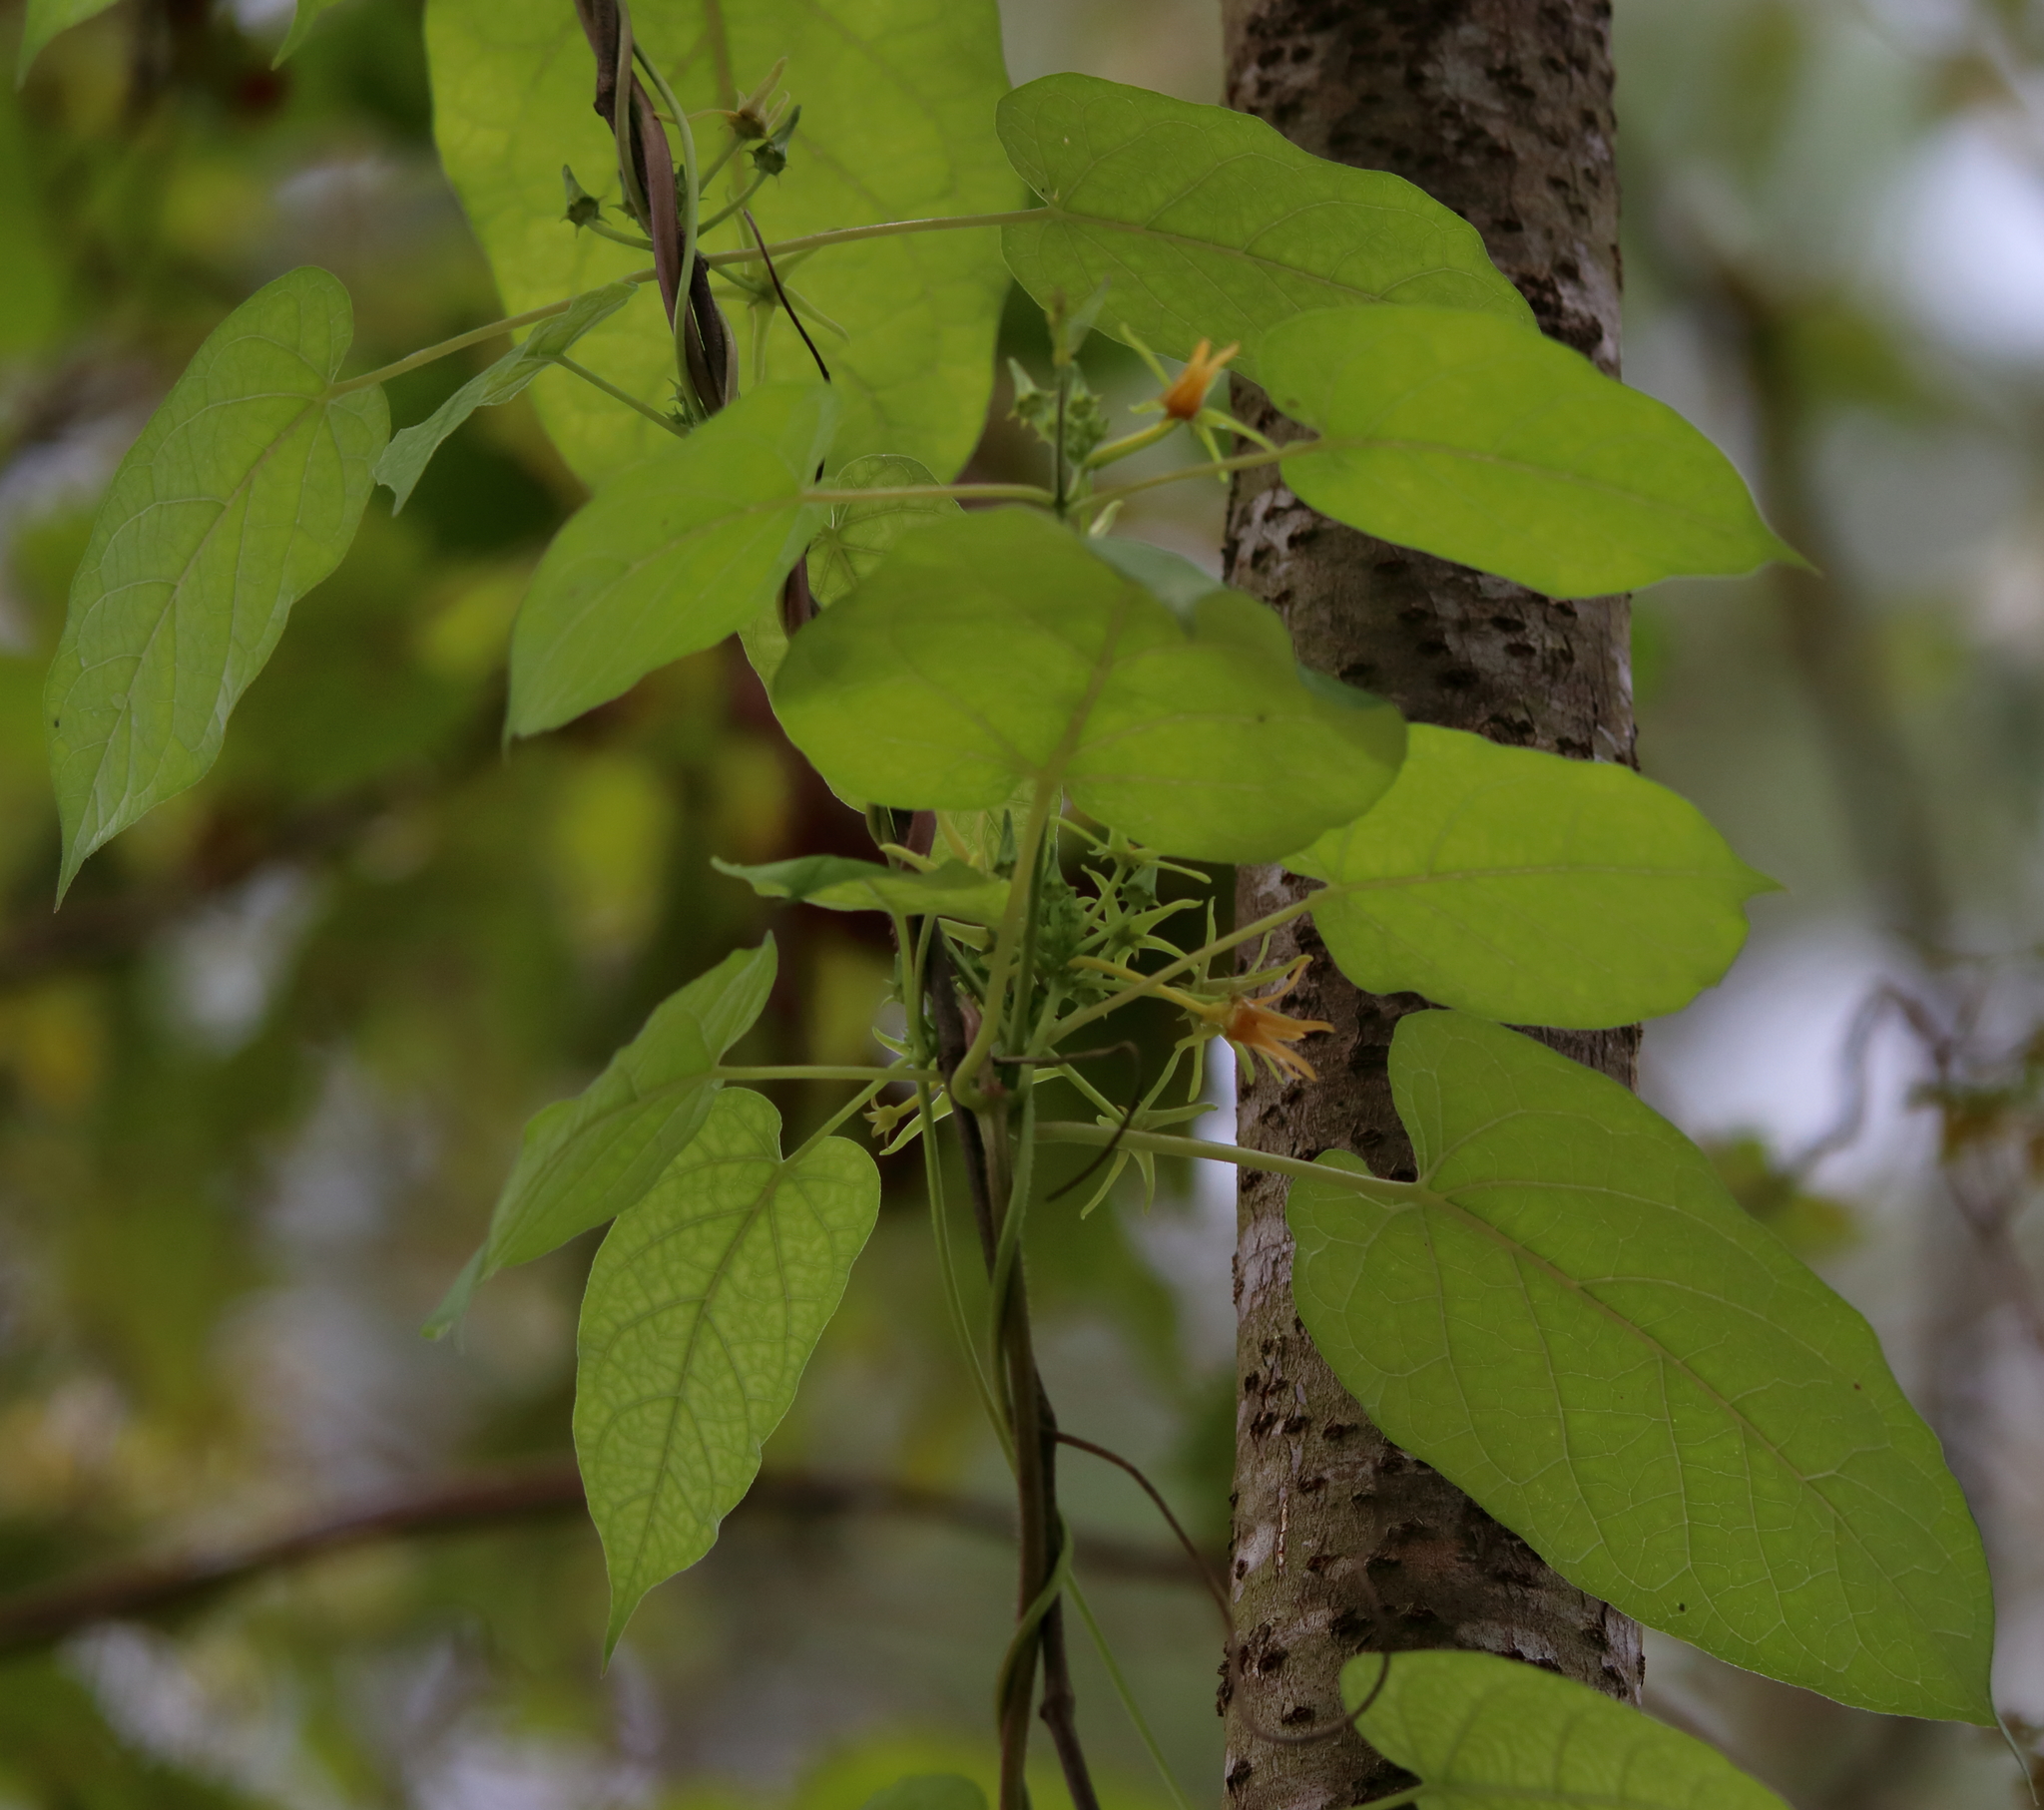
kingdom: Plantae
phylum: Tracheophyta
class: Magnoliopsida
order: Gentianales
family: Apocynaceae
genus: Gonolobus
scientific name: Gonolobus suberosus
